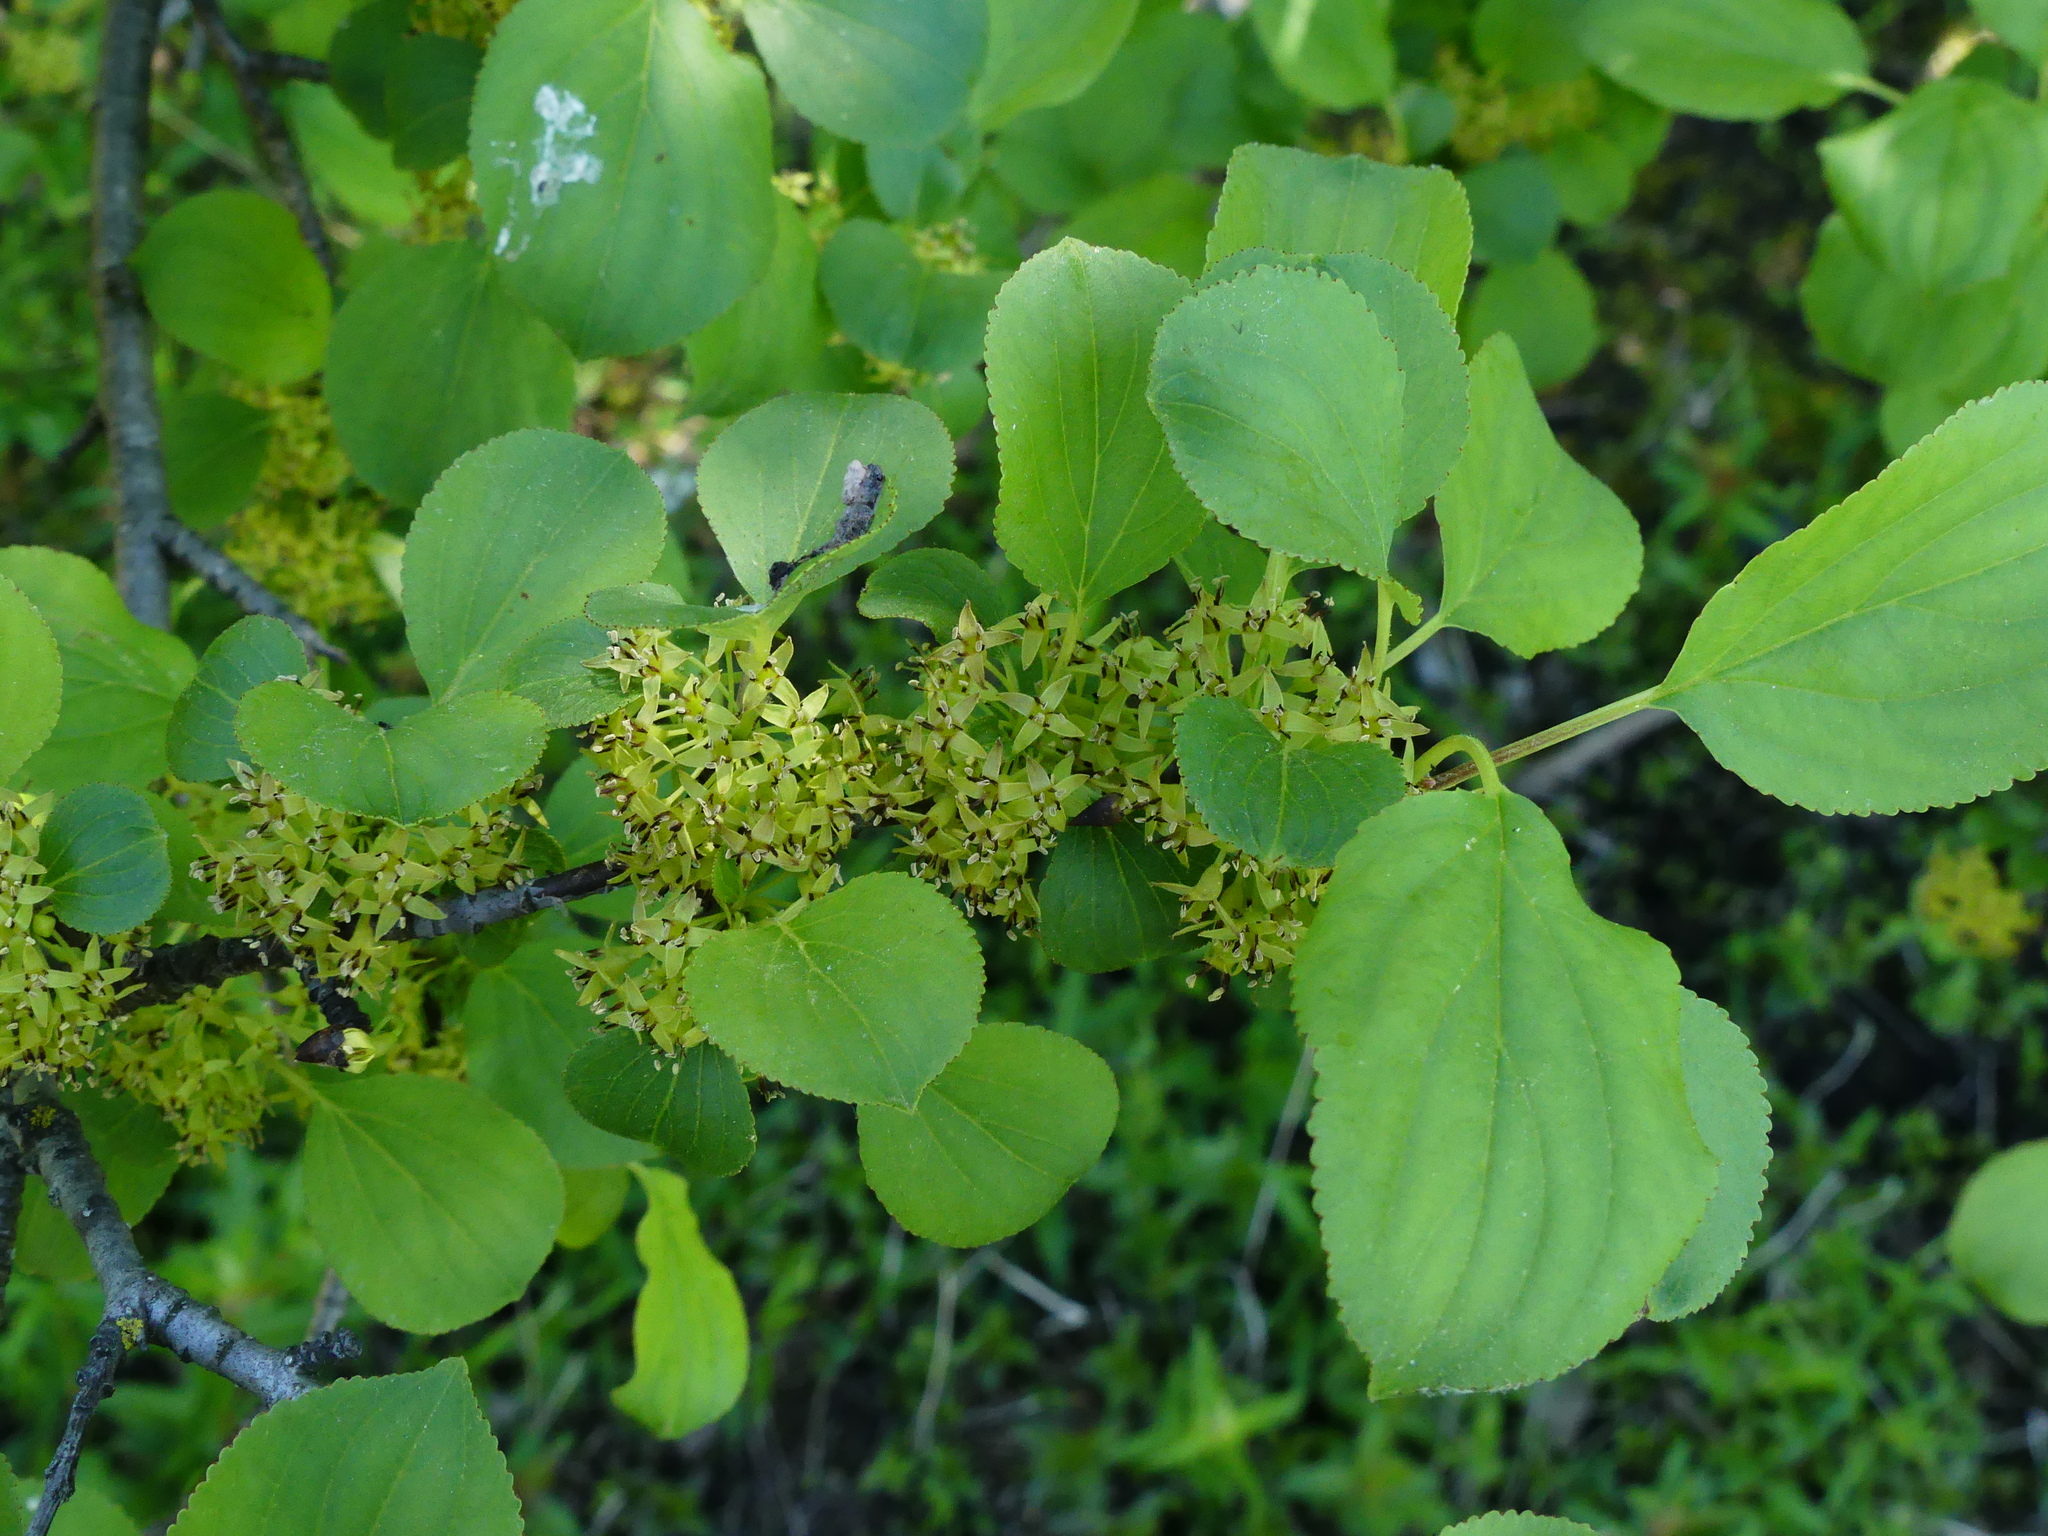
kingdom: Plantae
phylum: Tracheophyta
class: Magnoliopsida
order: Rosales
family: Rhamnaceae
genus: Rhamnus
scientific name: Rhamnus cathartica
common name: Common buckthorn
